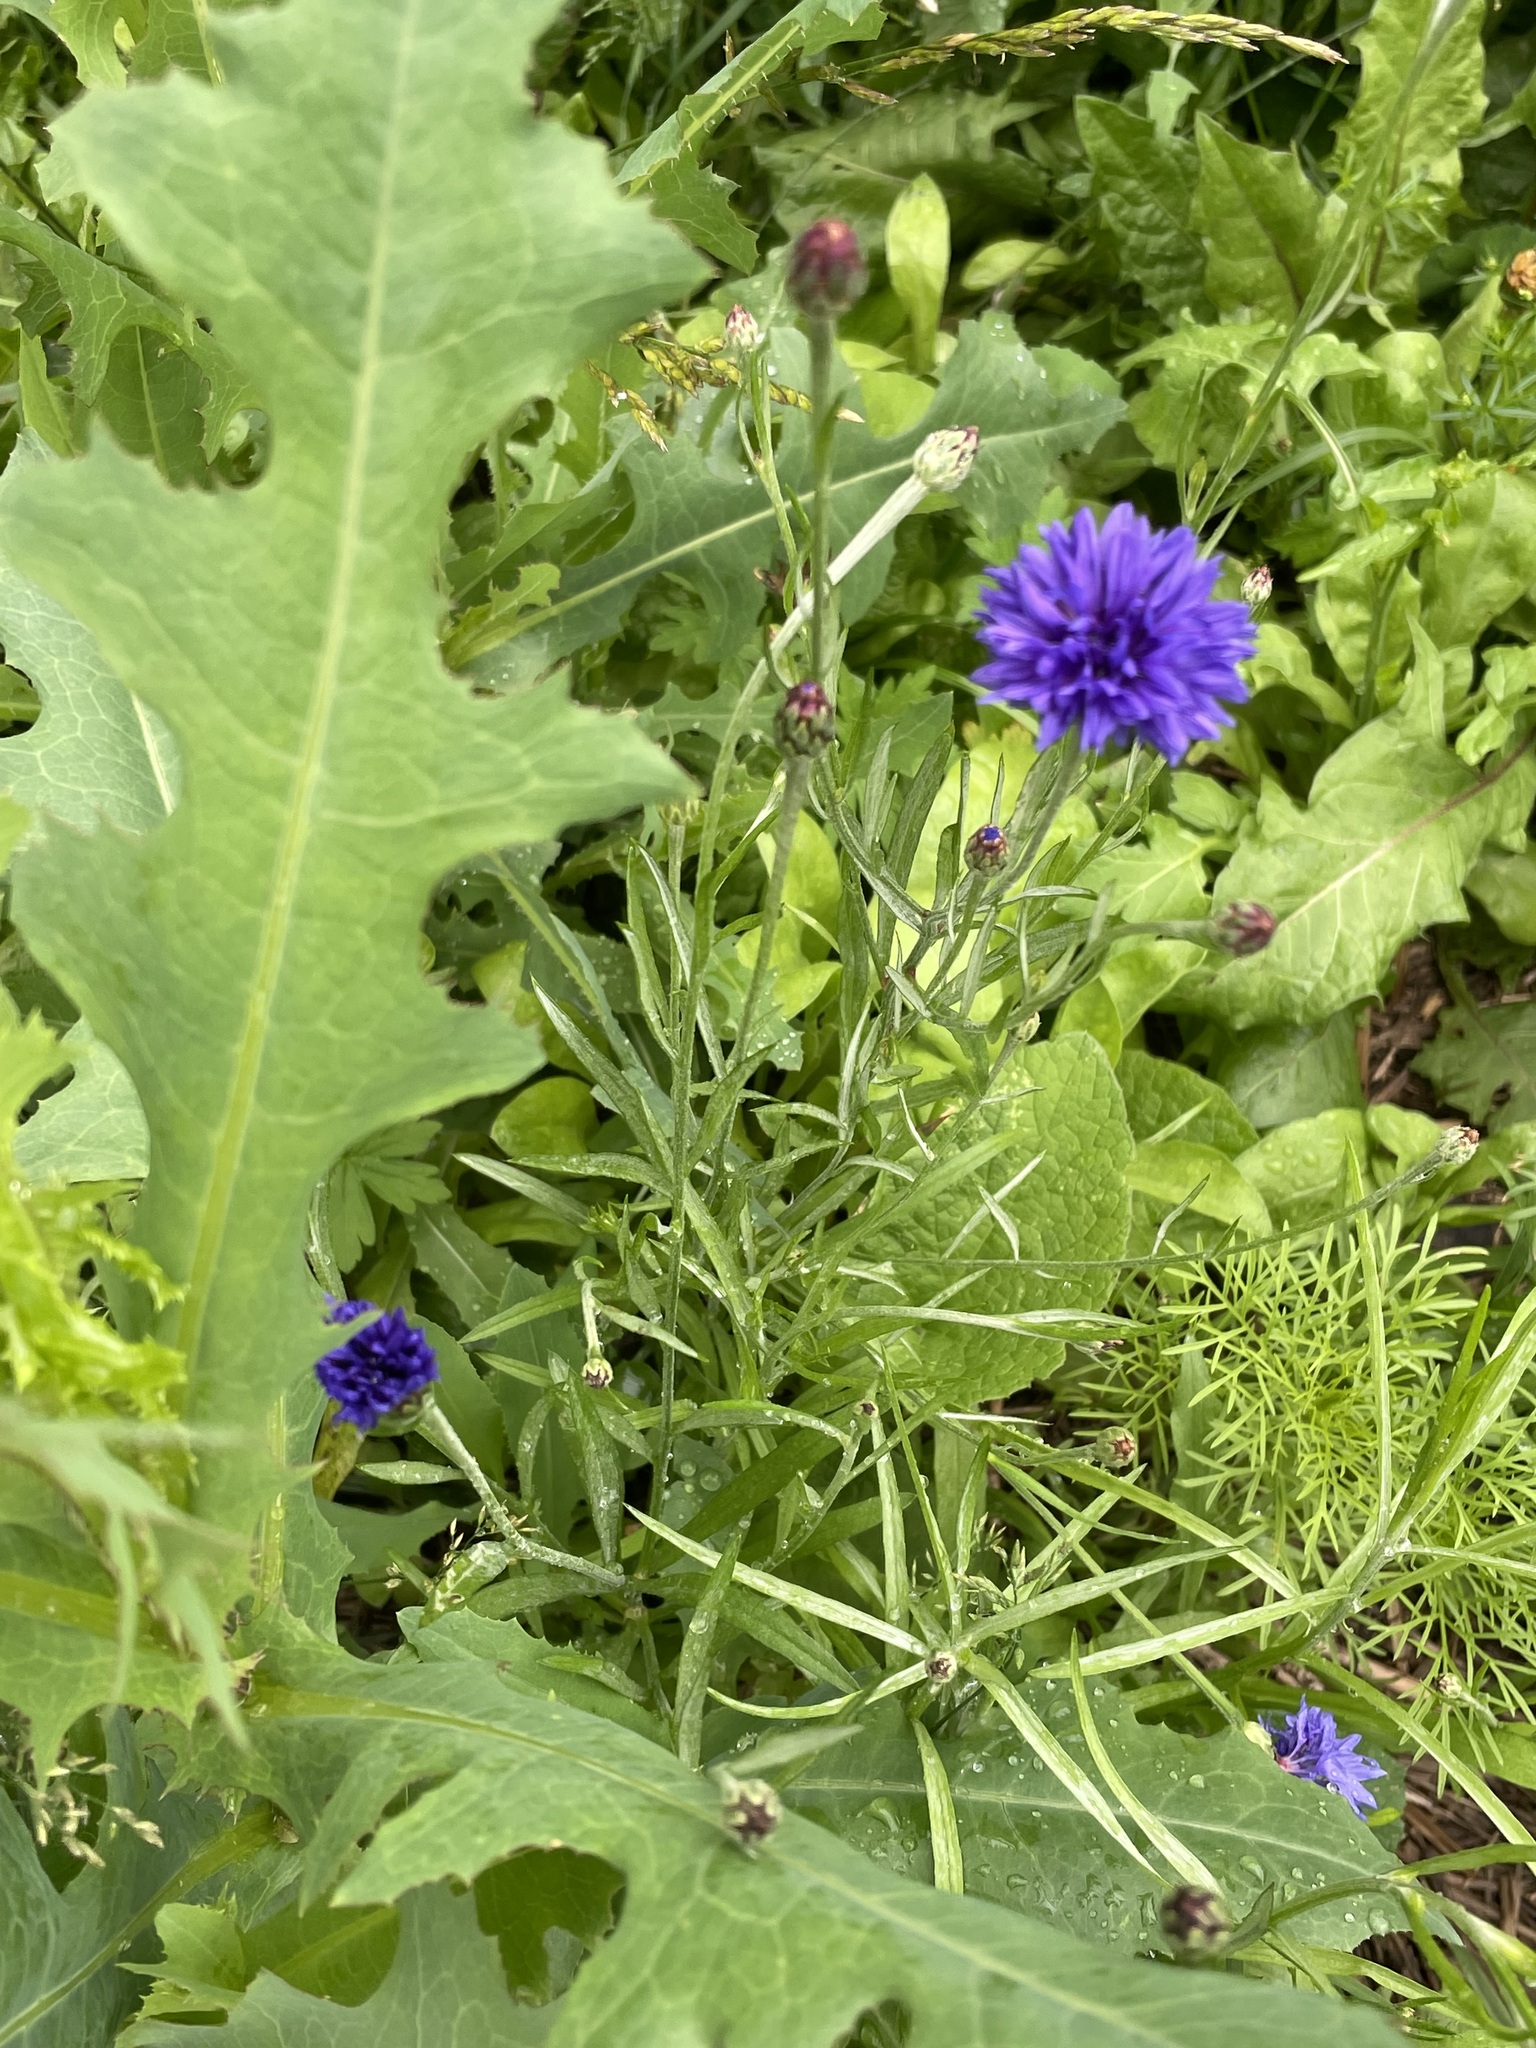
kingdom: Plantae
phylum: Tracheophyta
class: Magnoliopsida
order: Asterales
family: Asteraceae
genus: Centaurea
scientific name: Centaurea cyanus
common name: Cornflower
